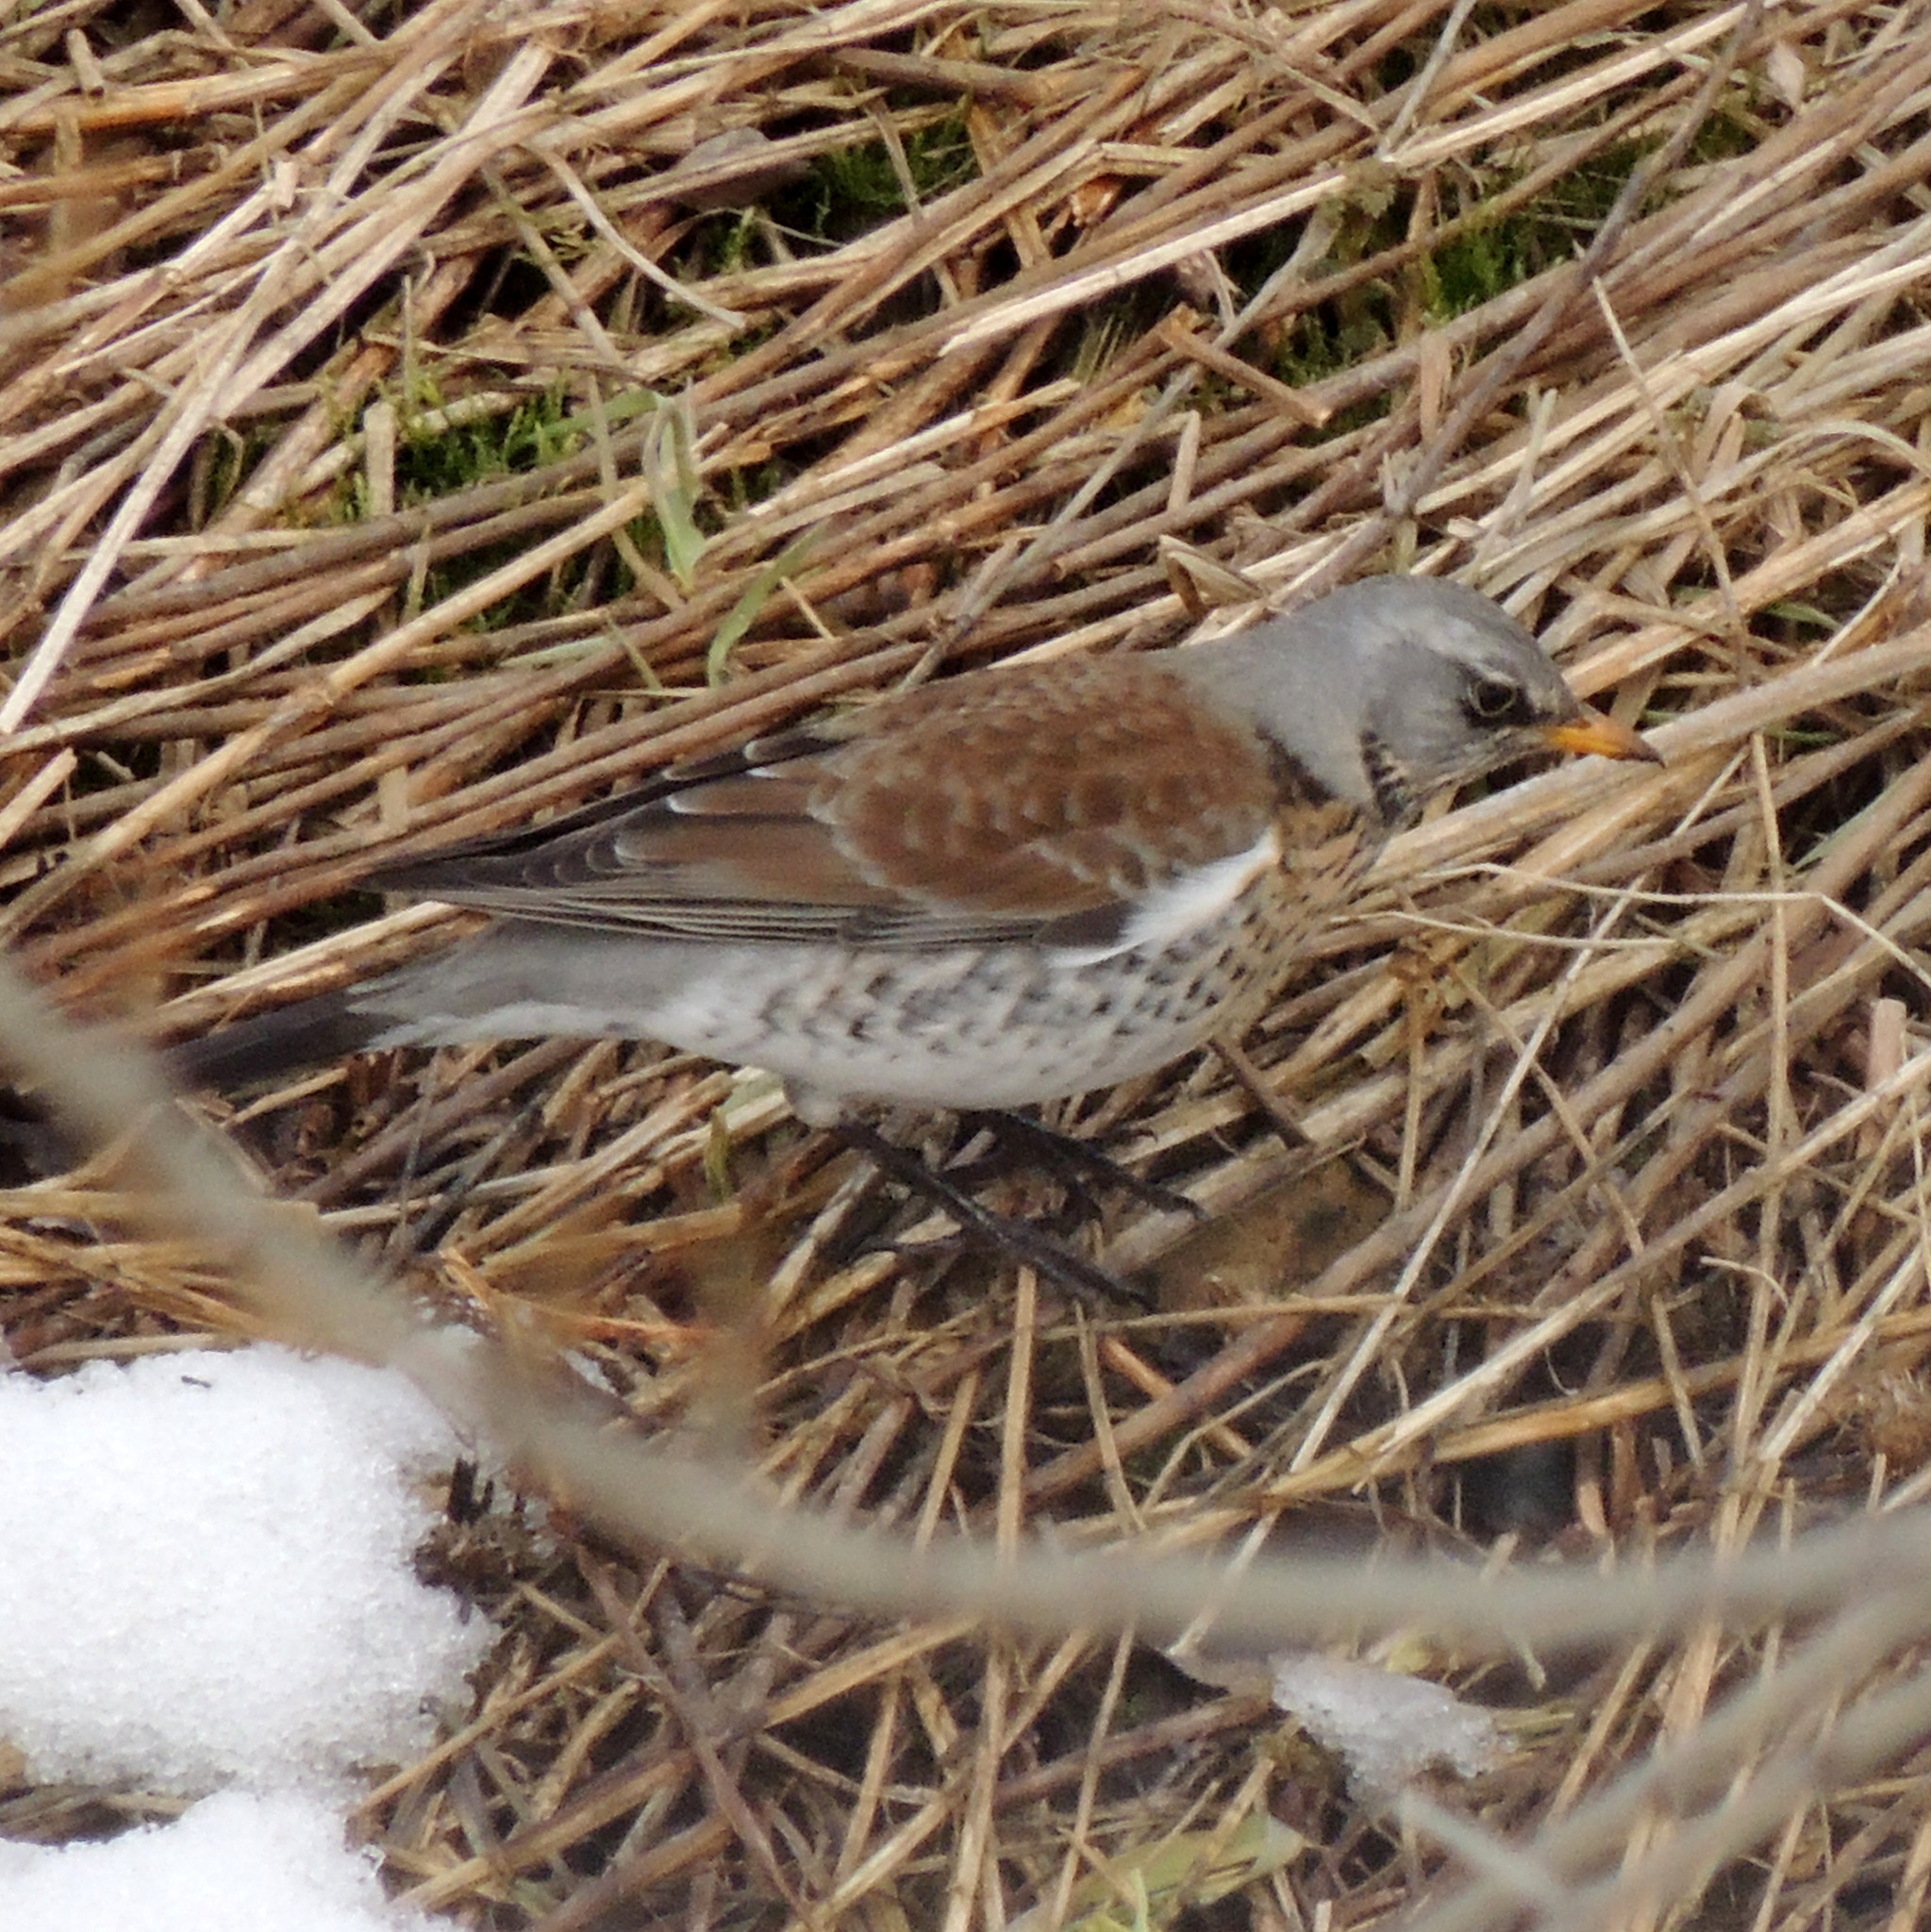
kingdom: Animalia
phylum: Chordata
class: Aves
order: Passeriformes
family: Turdidae
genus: Turdus
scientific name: Turdus pilaris
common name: Fieldfare
